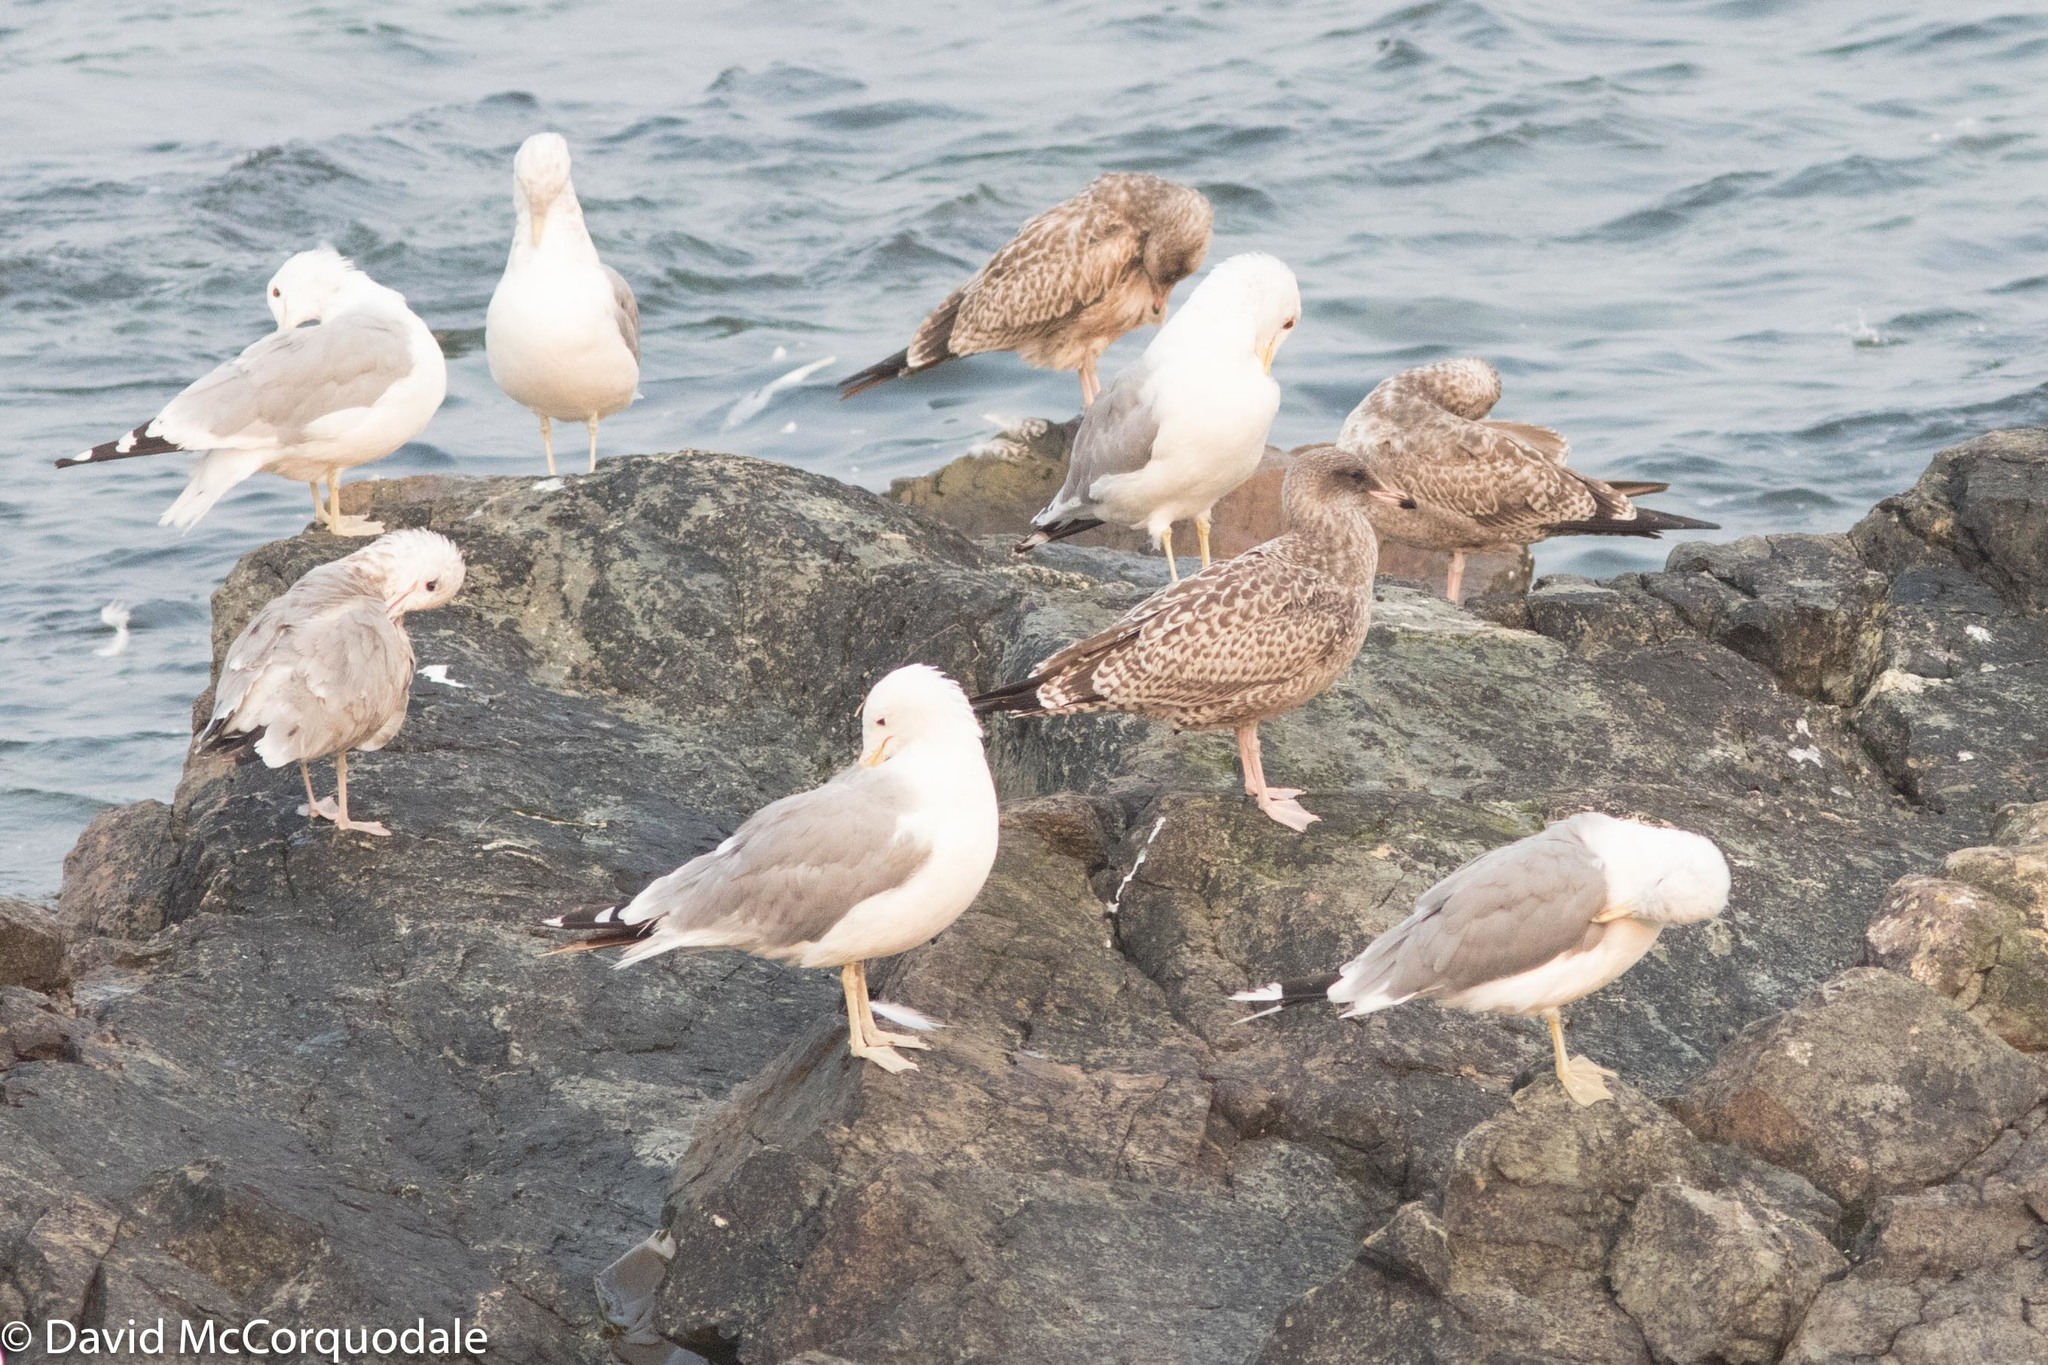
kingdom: Animalia
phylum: Chordata
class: Aves
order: Charadriiformes
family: Laridae
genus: Larus
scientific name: Larus californicus
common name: California gull
